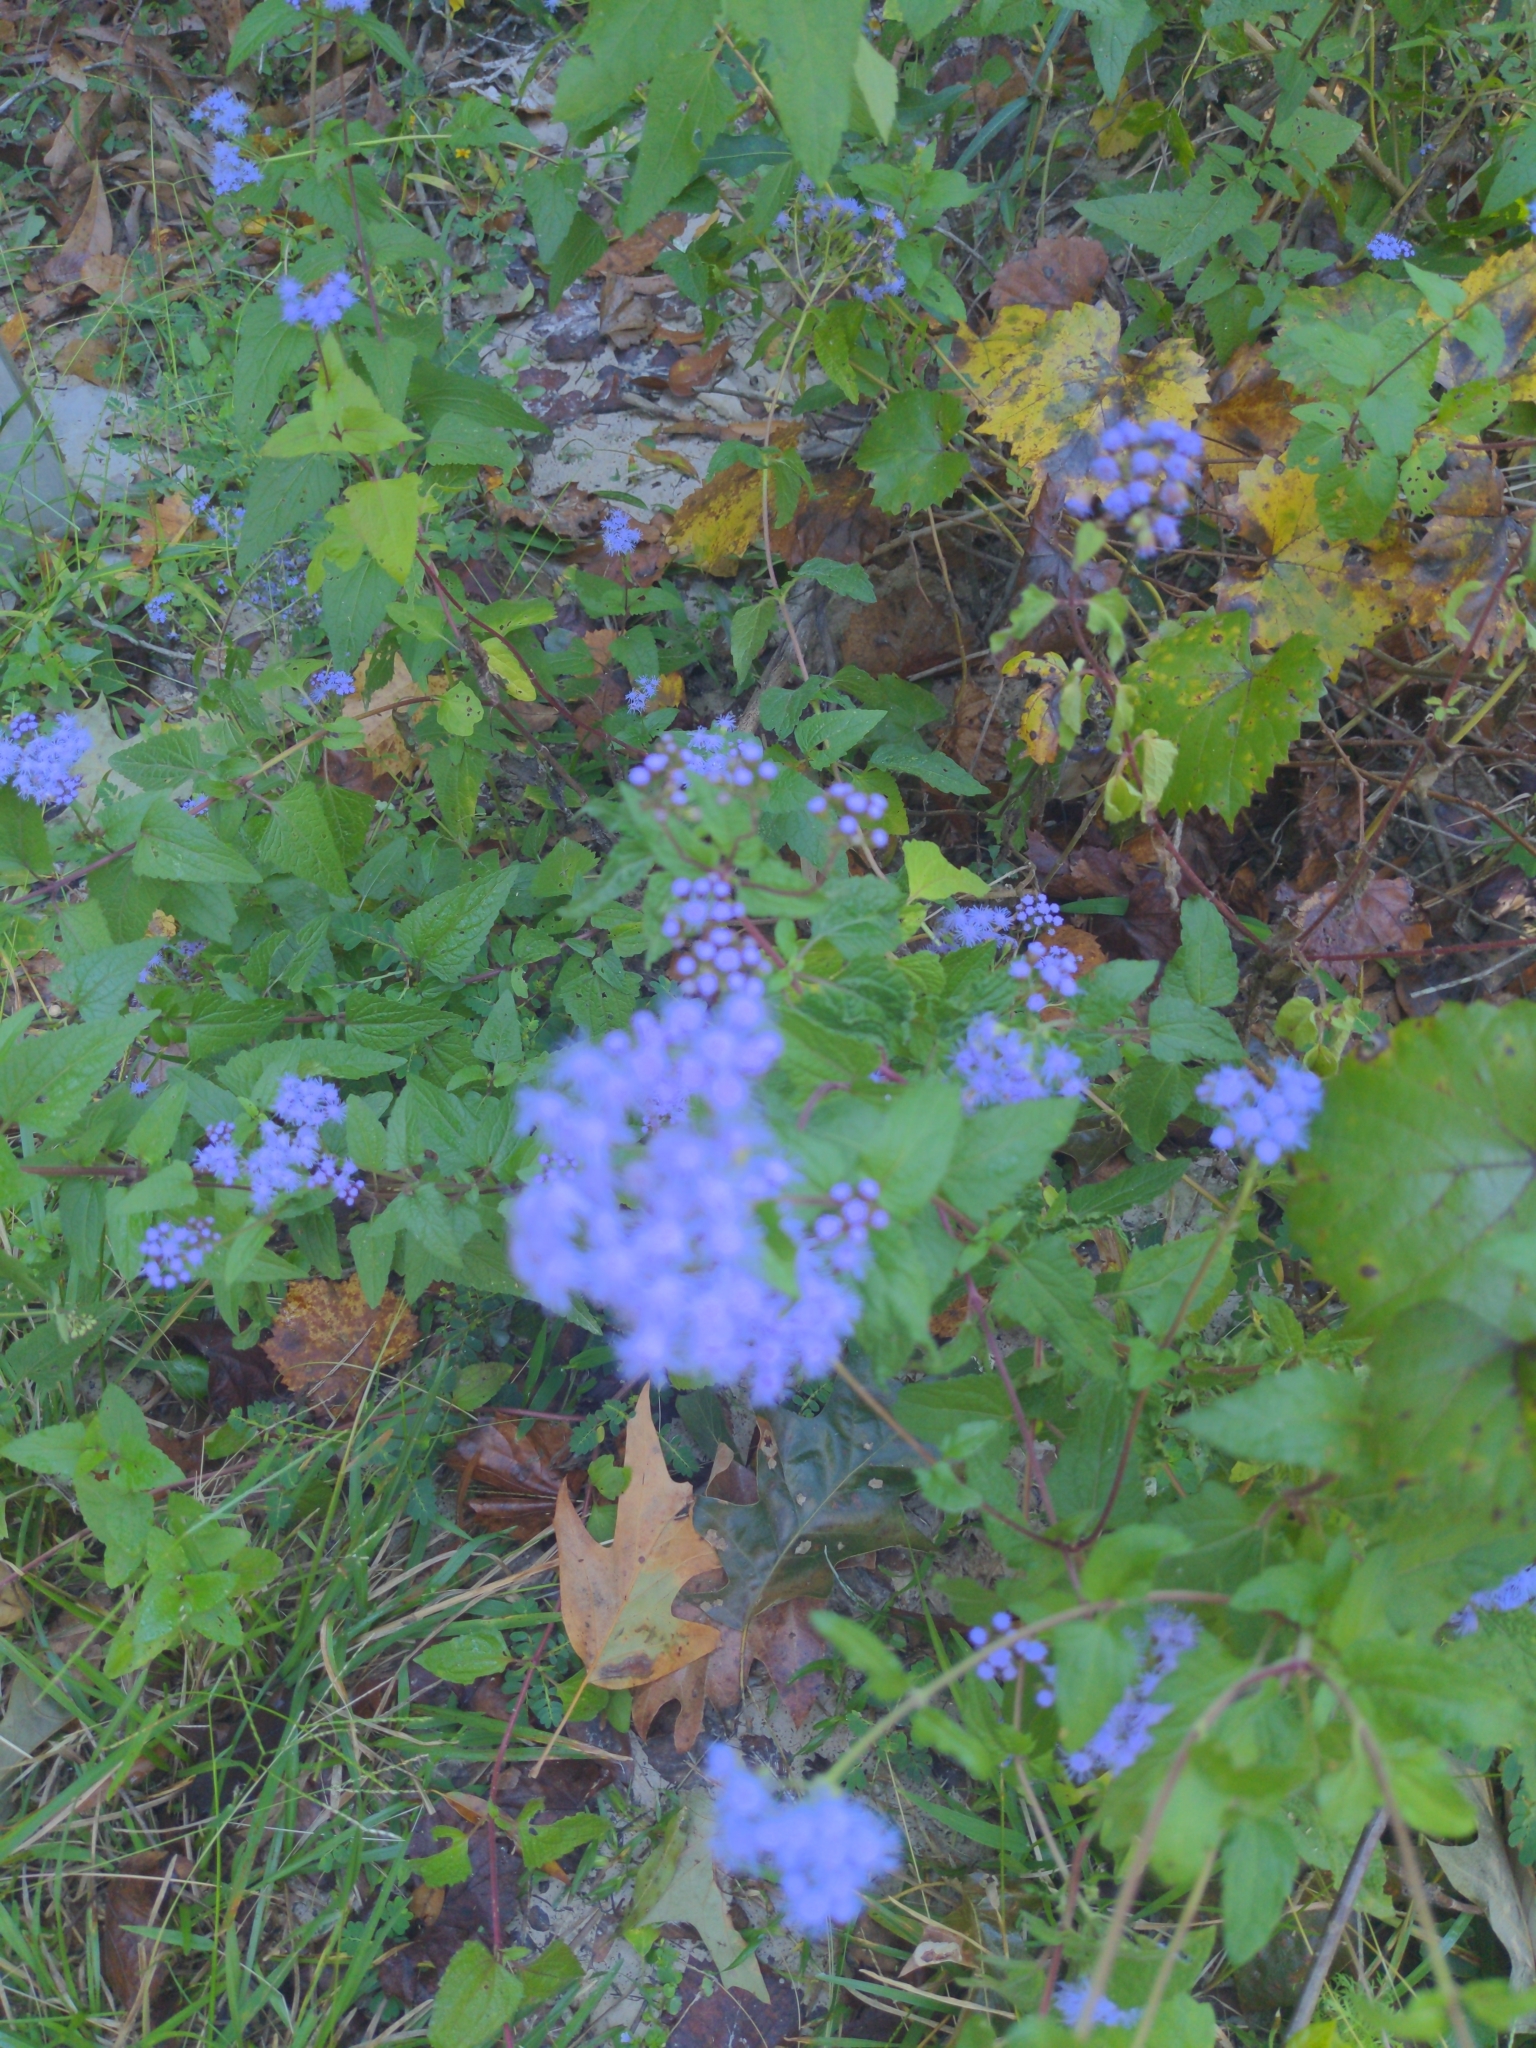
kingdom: Plantae
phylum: Tracheophyta
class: Magnoliopsida
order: Asterales
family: Asteraceae
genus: Conoclinium
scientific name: Conoclinium coelestinum
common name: Blue mistflower
